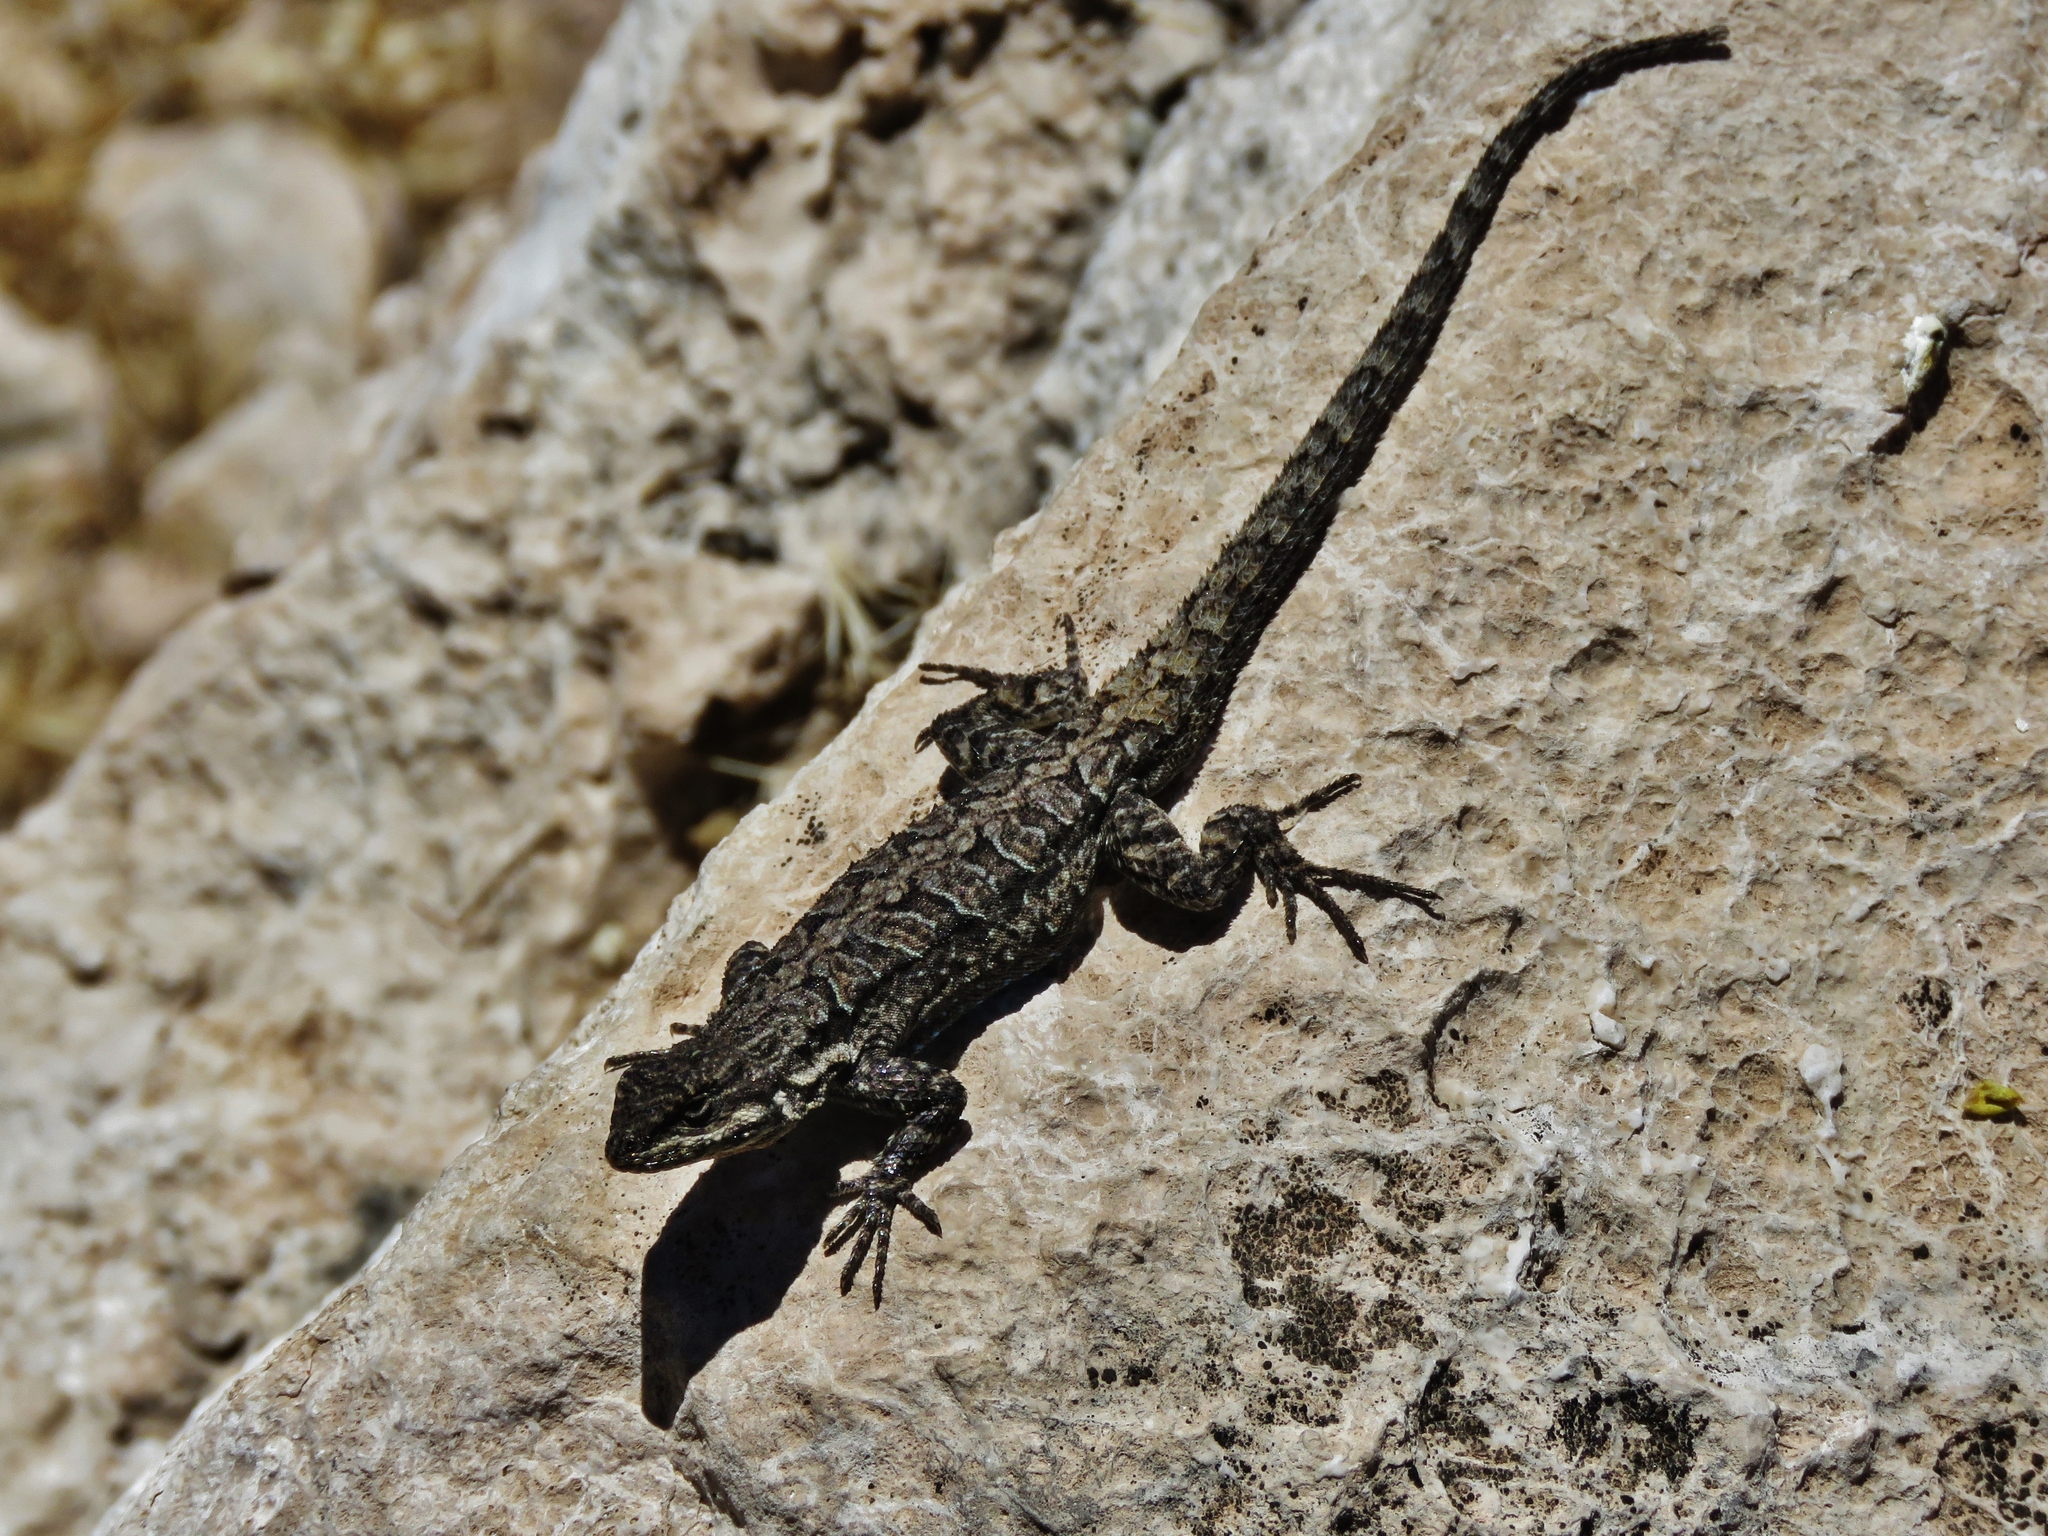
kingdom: Animalia
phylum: Chordata
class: Squamata
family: Phrynosomatidae
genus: Urosaurus
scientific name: Urosaurus ornatus
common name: Ornate tree lizard
